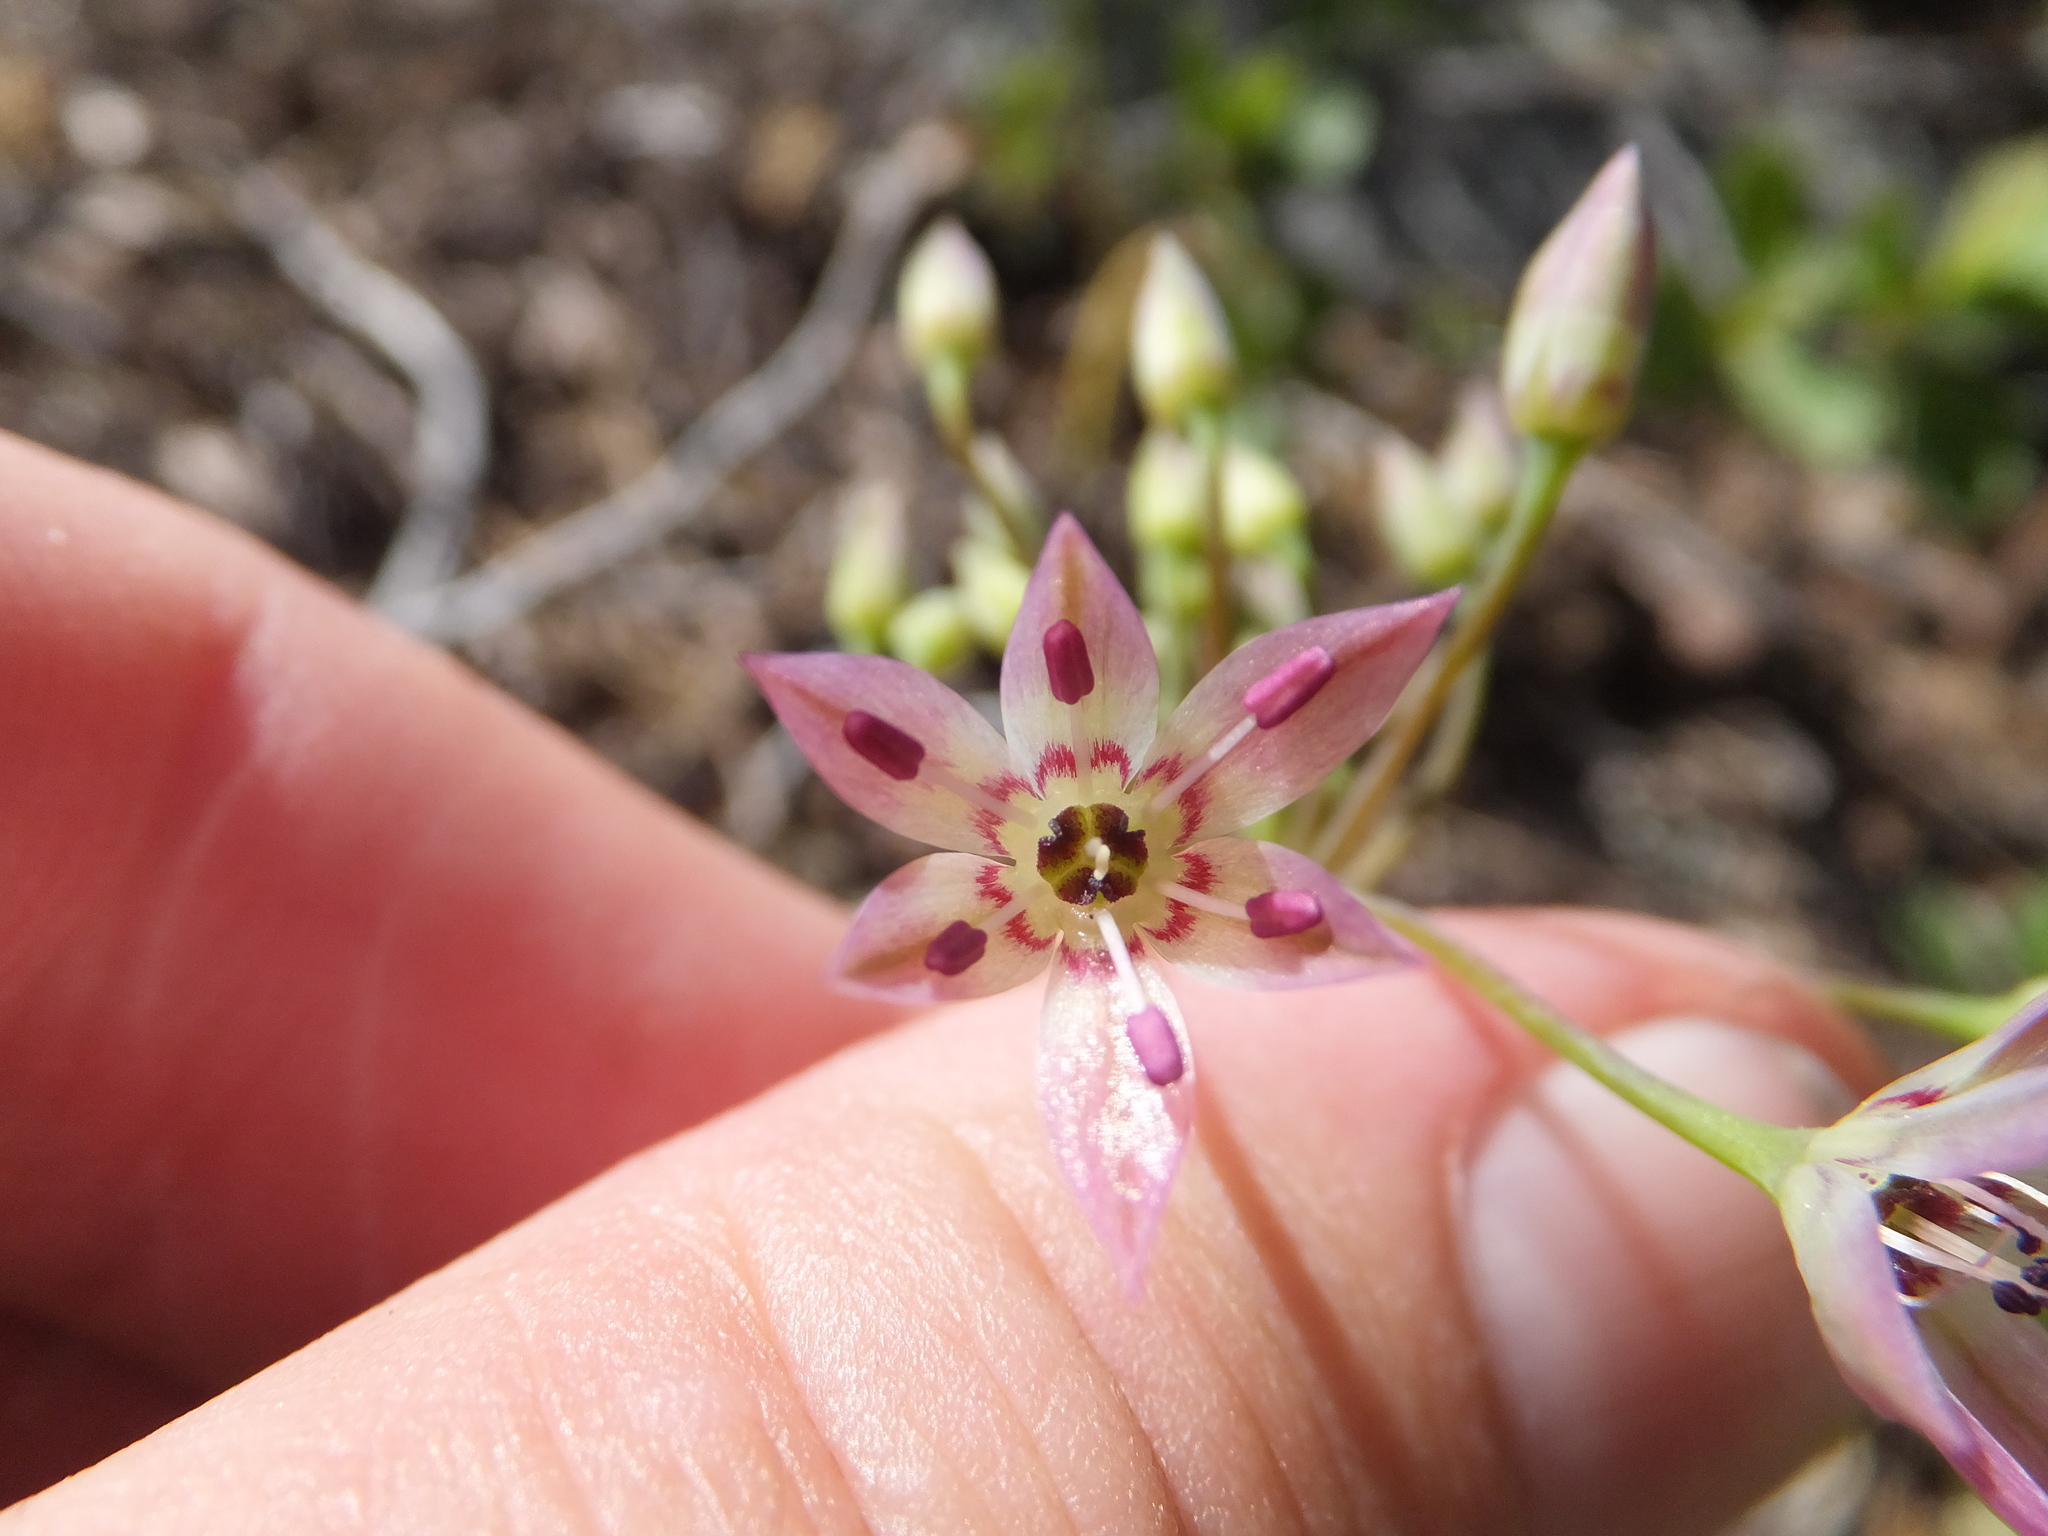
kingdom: Plantae
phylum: Tracheophyta
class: Liliopsida
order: Asparagales
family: Amaryllidaceae
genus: Allium
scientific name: Allium campanulatum
